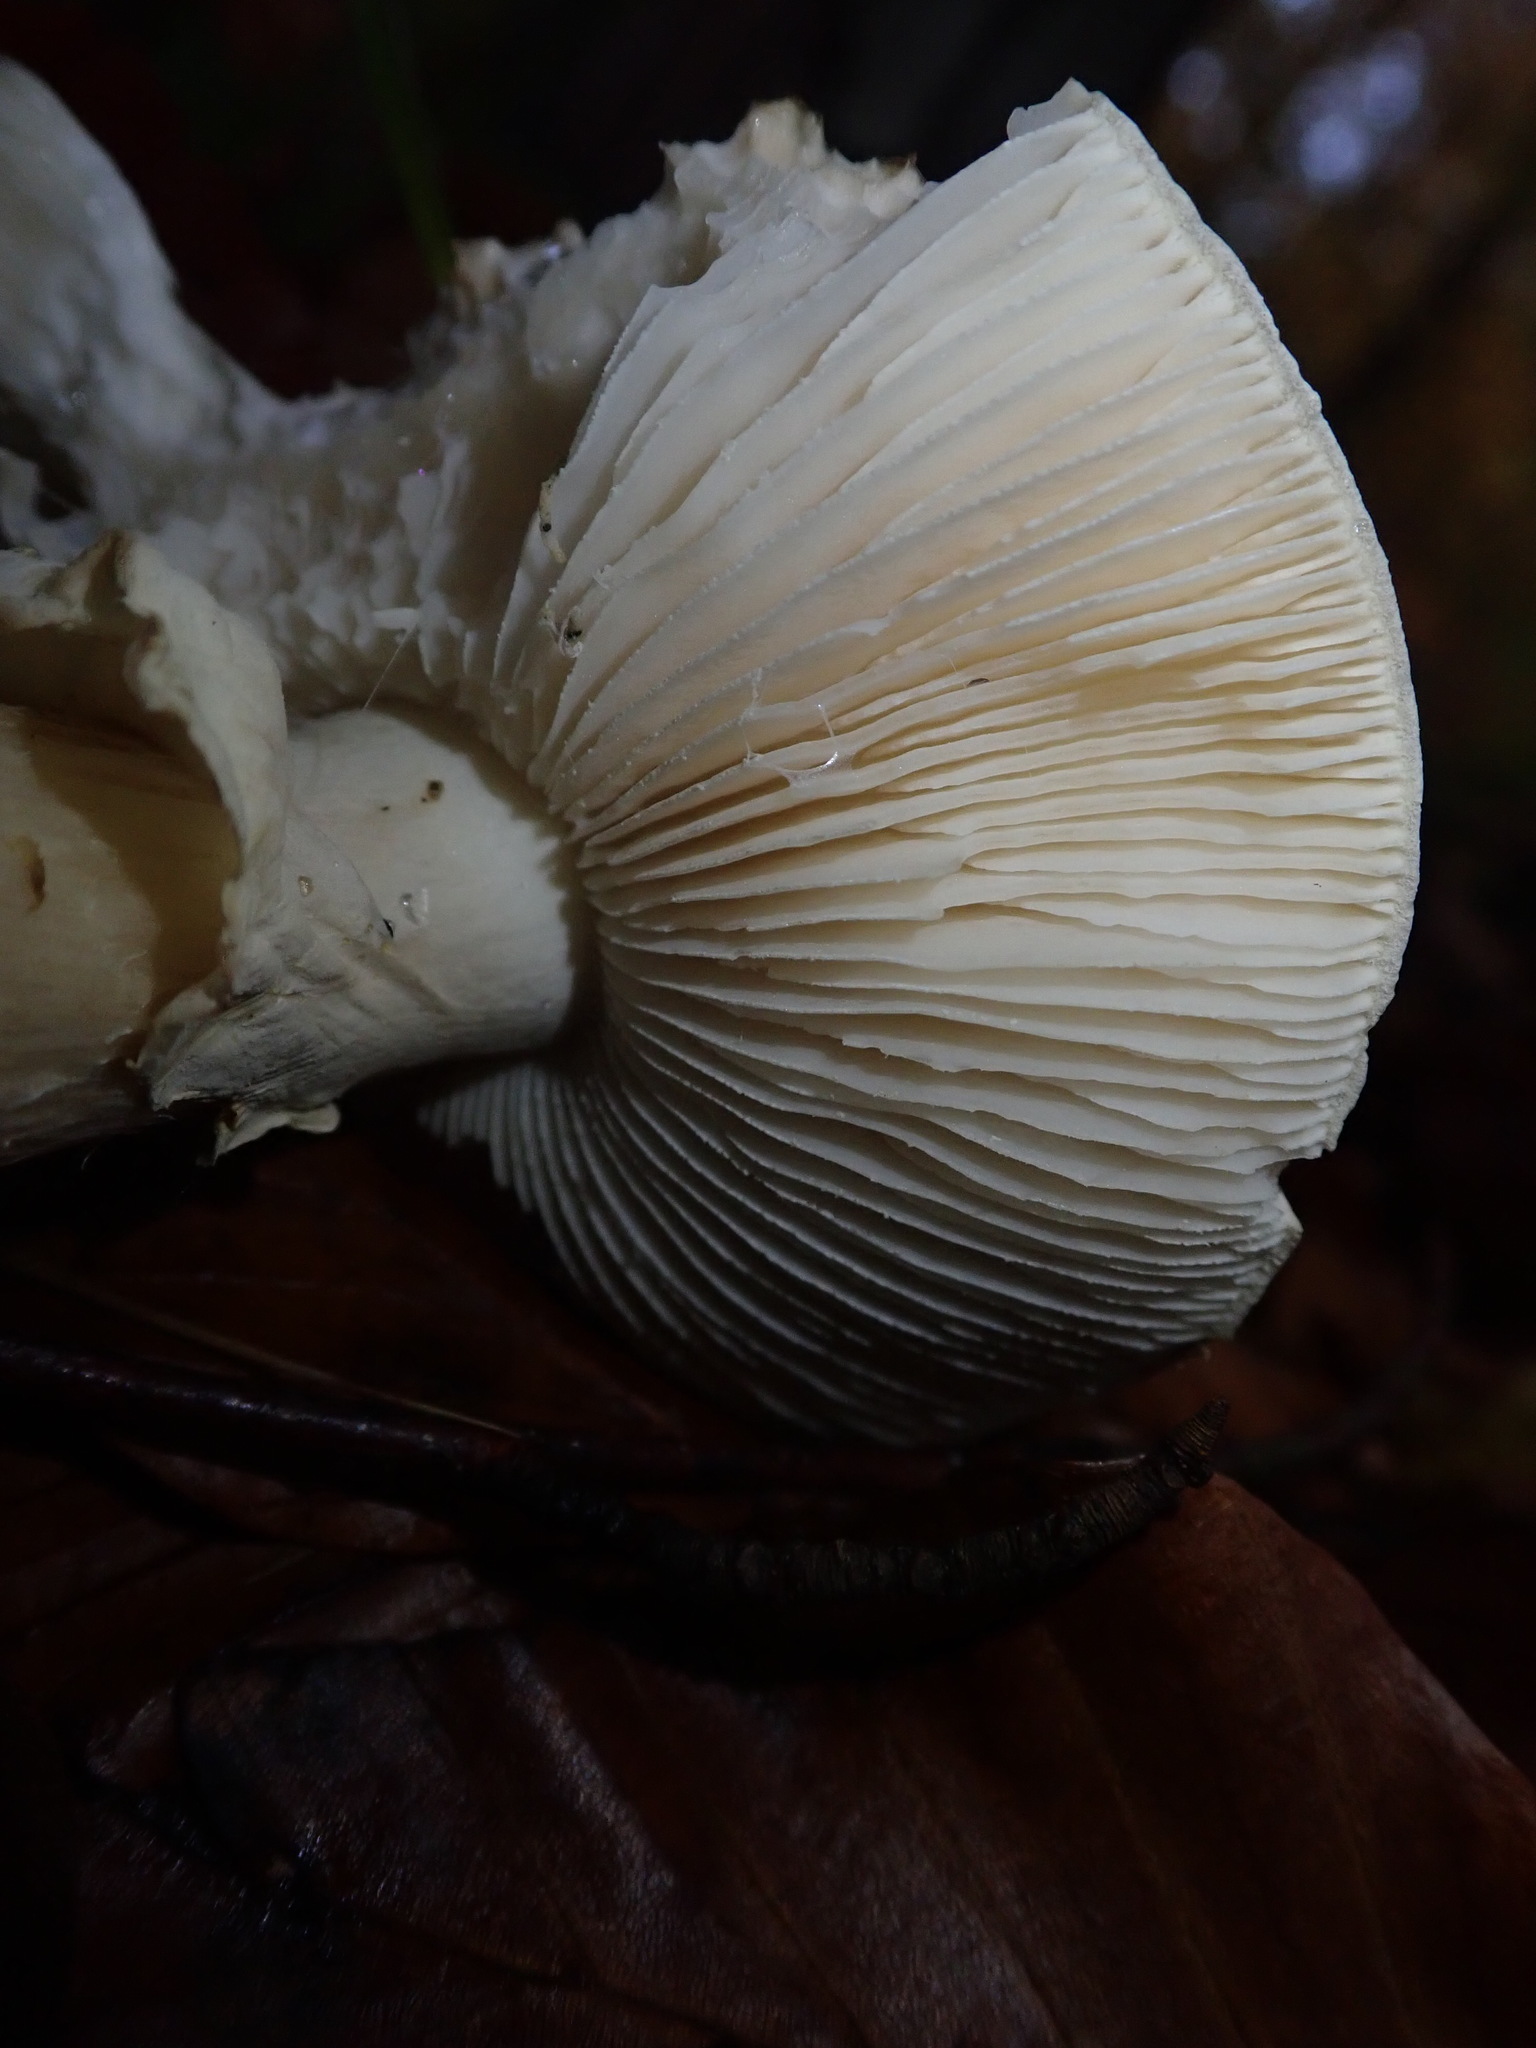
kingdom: Fungi
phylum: Basidiomycota
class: Agaricomycetes
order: Agaricales
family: Amanitaceae
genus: Amanita
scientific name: Amanita citrina
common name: False death-cap
